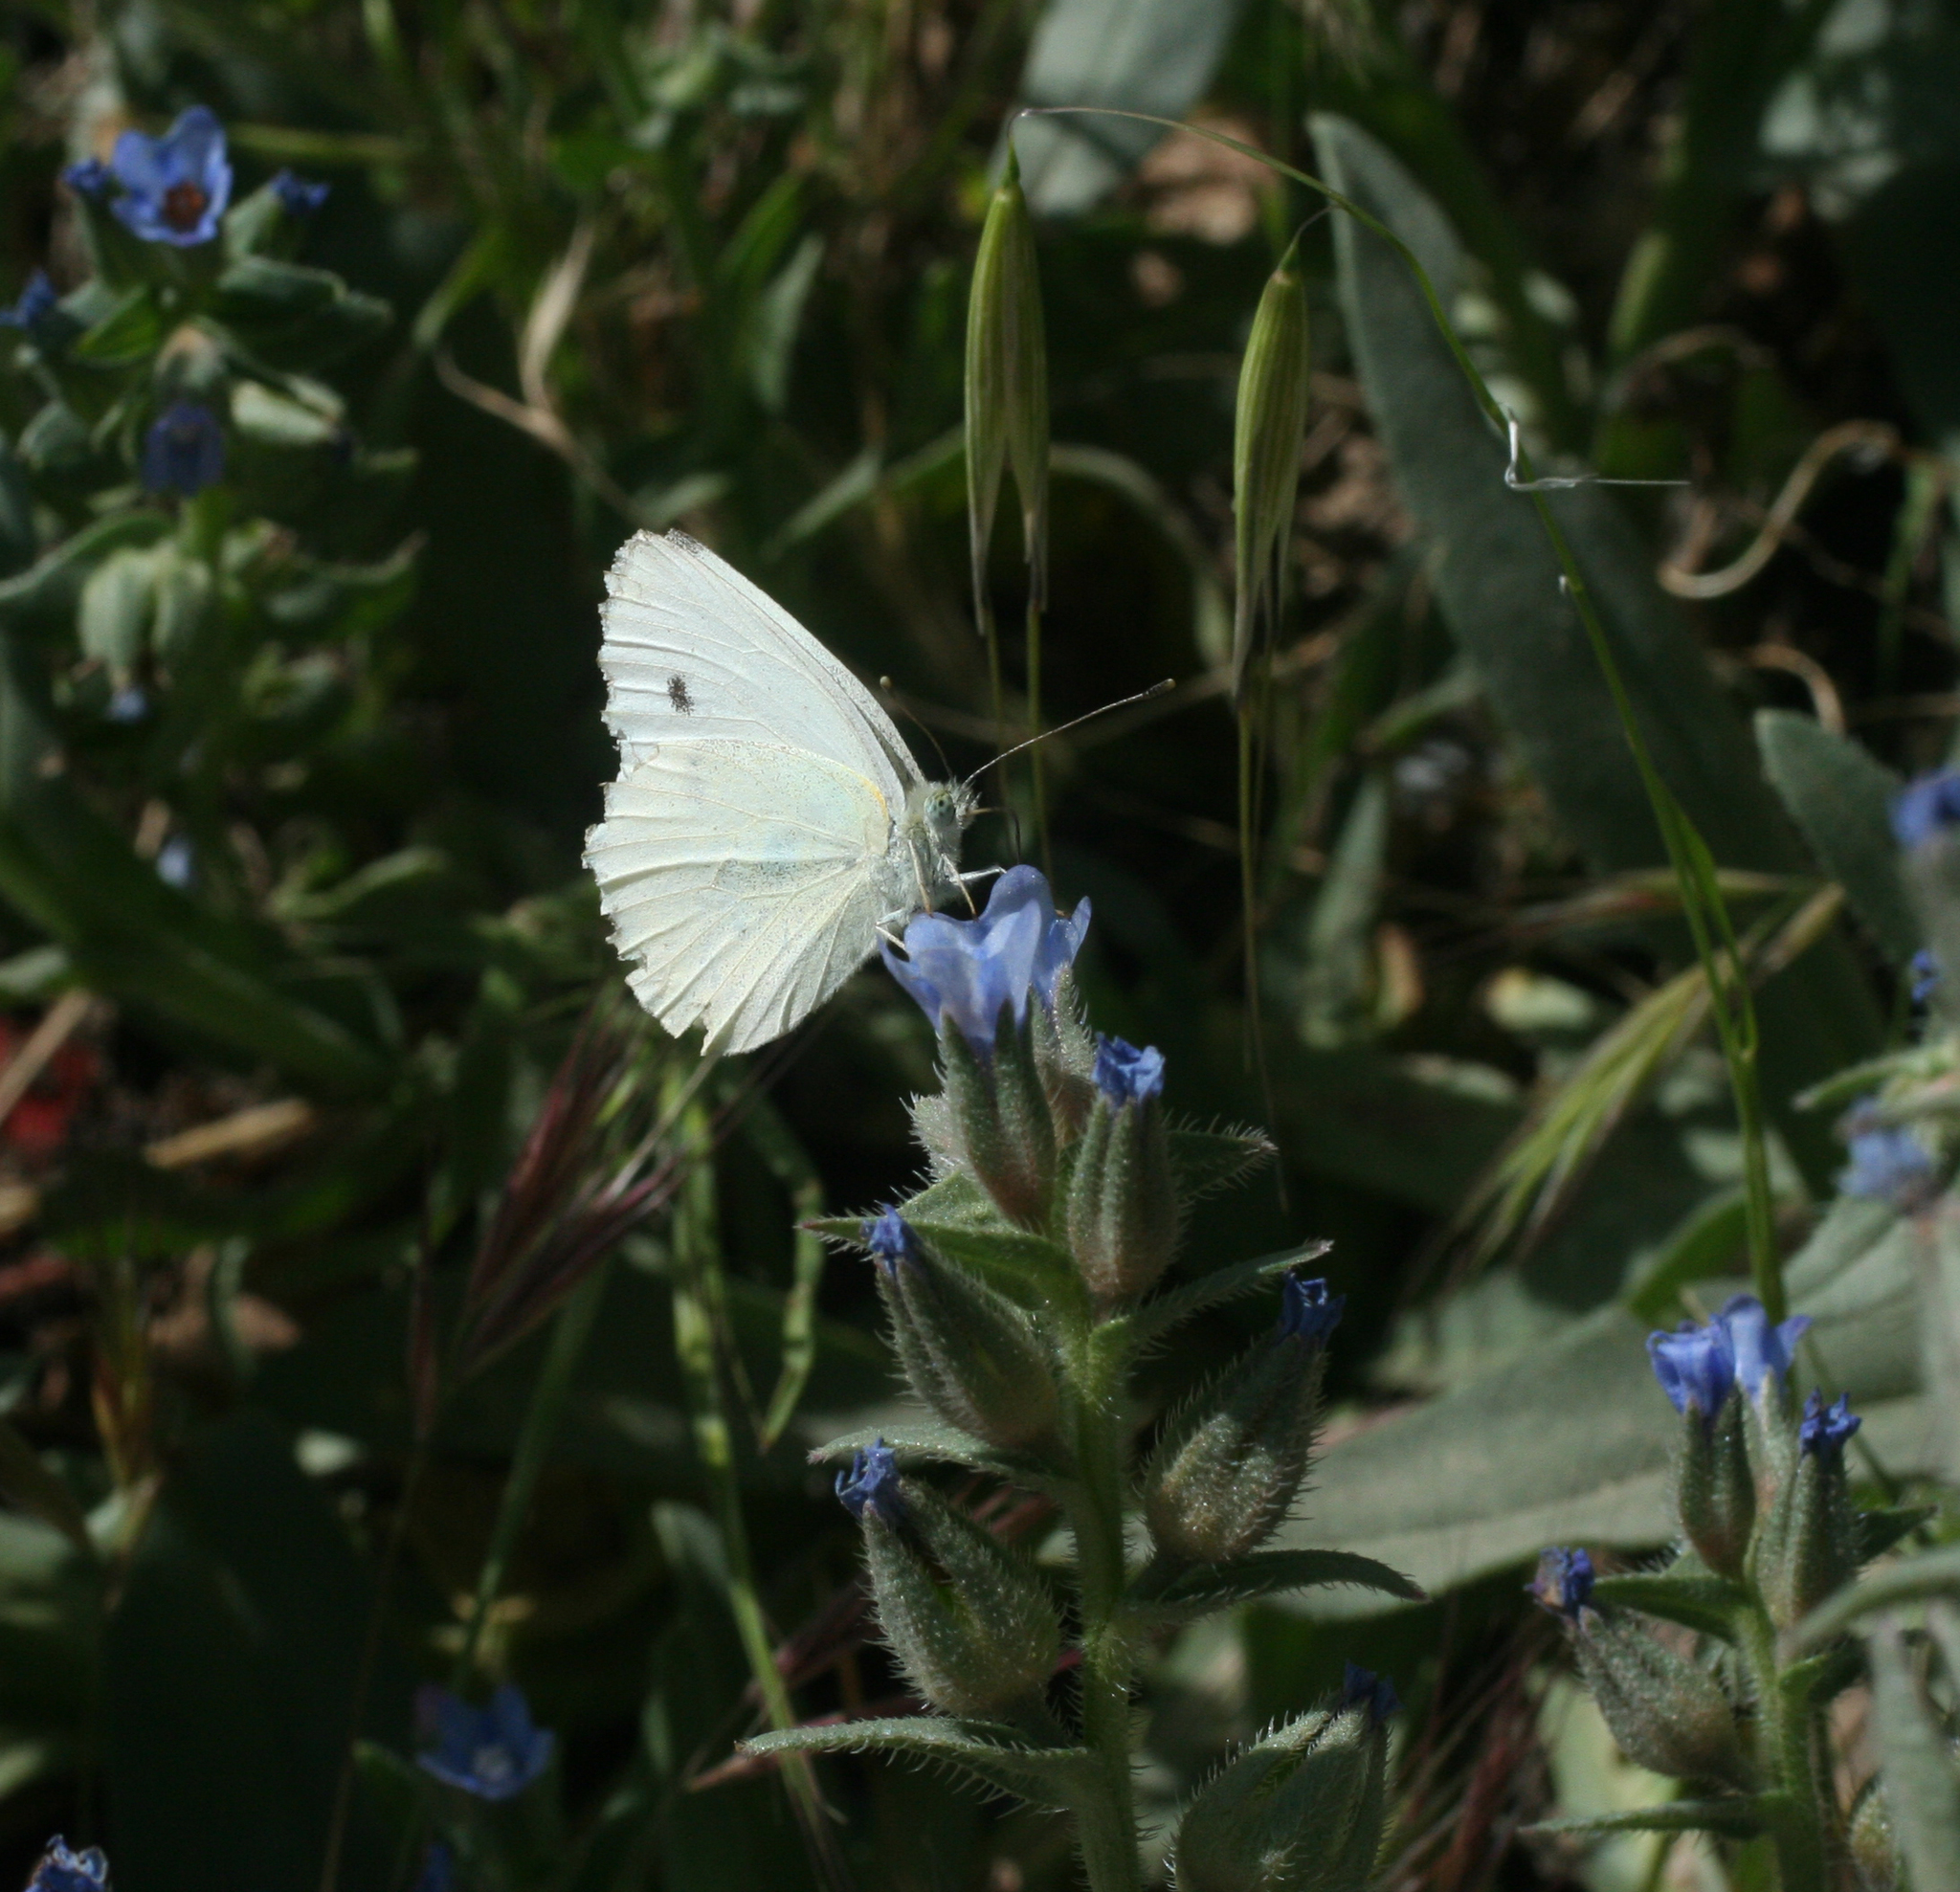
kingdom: Animalia
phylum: Arthropoda
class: Insecta
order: Lepidoptera
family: Pieridae
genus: Pieris
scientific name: Pieris rapae
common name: Small white
